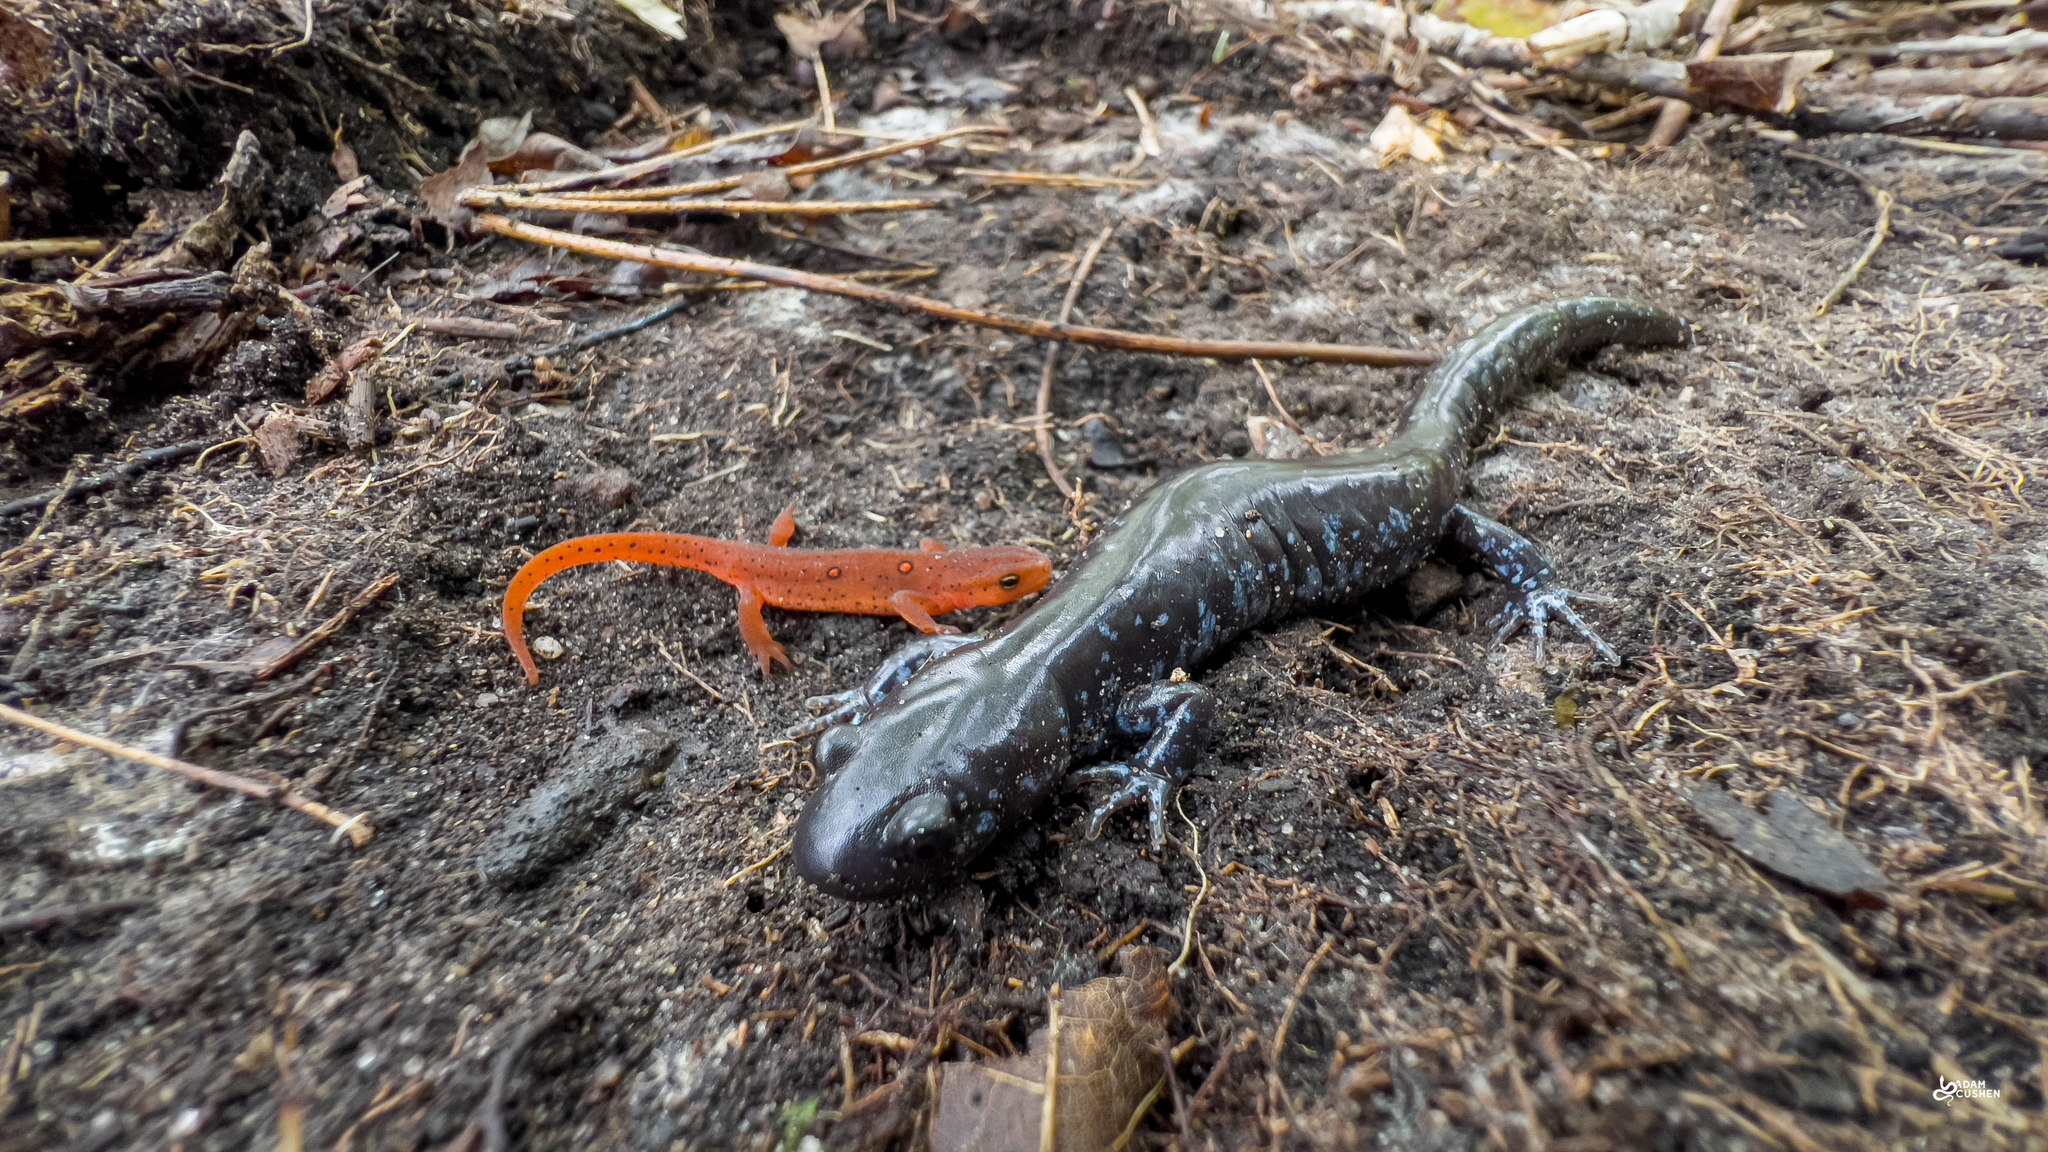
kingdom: Animalia
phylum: Chordata
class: Amphibia
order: Caudata
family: Ambystomatidae
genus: Ambystoma
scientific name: Ambystoma laterale
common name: Blue-spotted salamander
